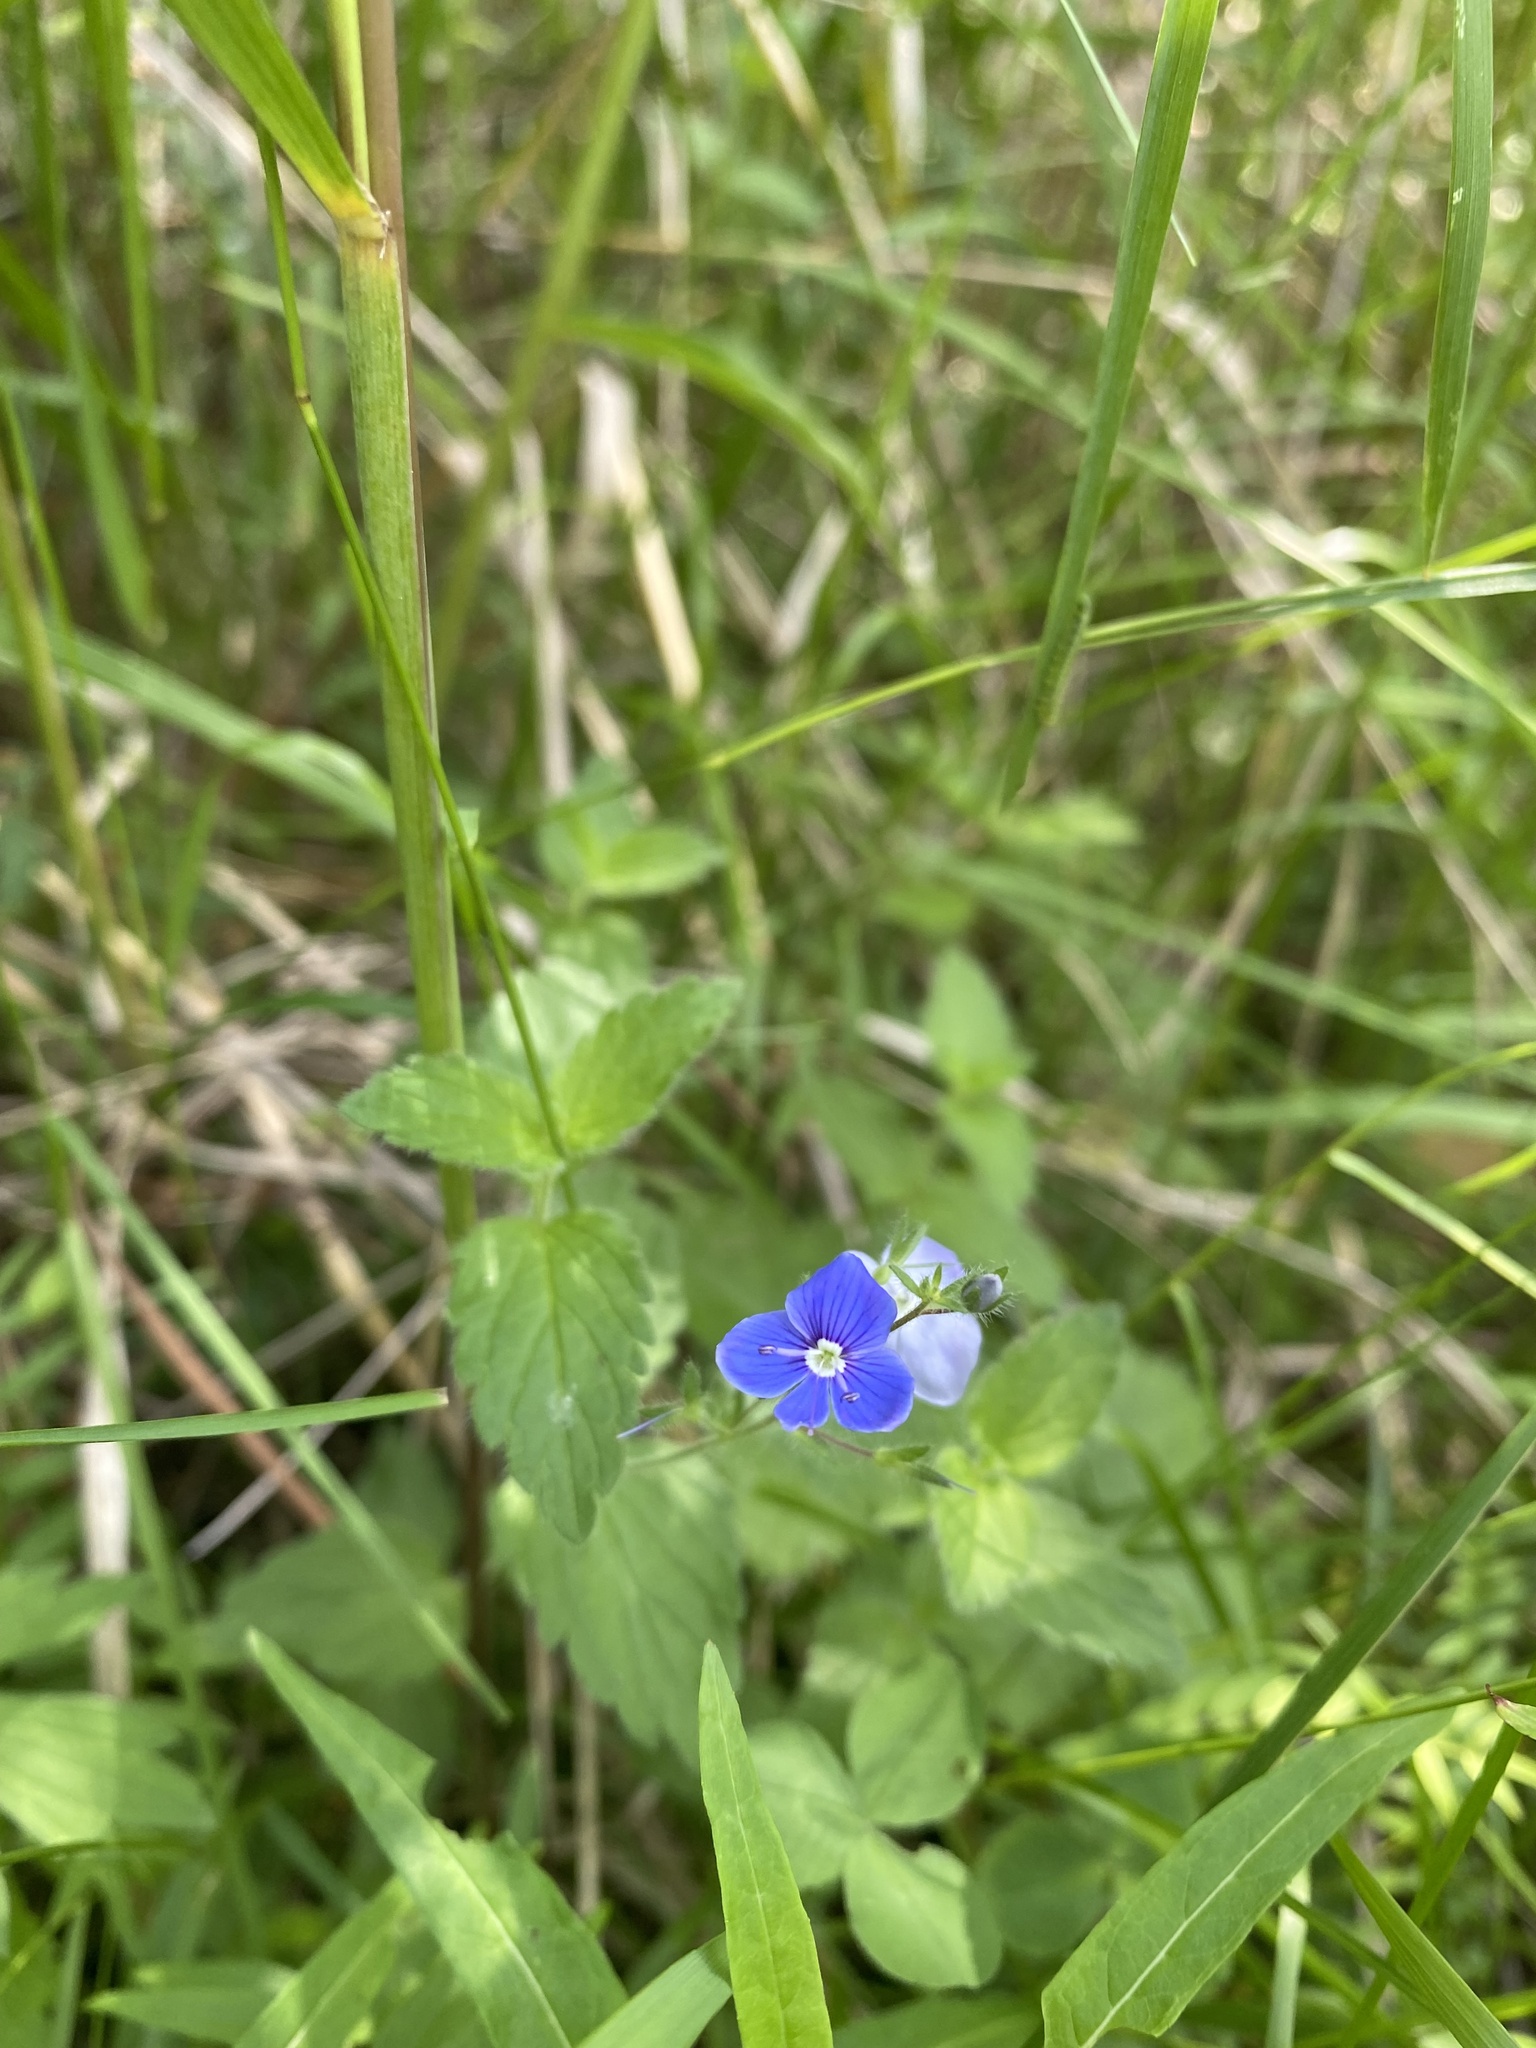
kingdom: Plantae
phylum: Tracheophyta
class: Magnoliopsida
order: Lamiales
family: Plantaginaceae
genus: Veronica
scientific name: Veronica chamaedrys
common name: Germander speedwell
